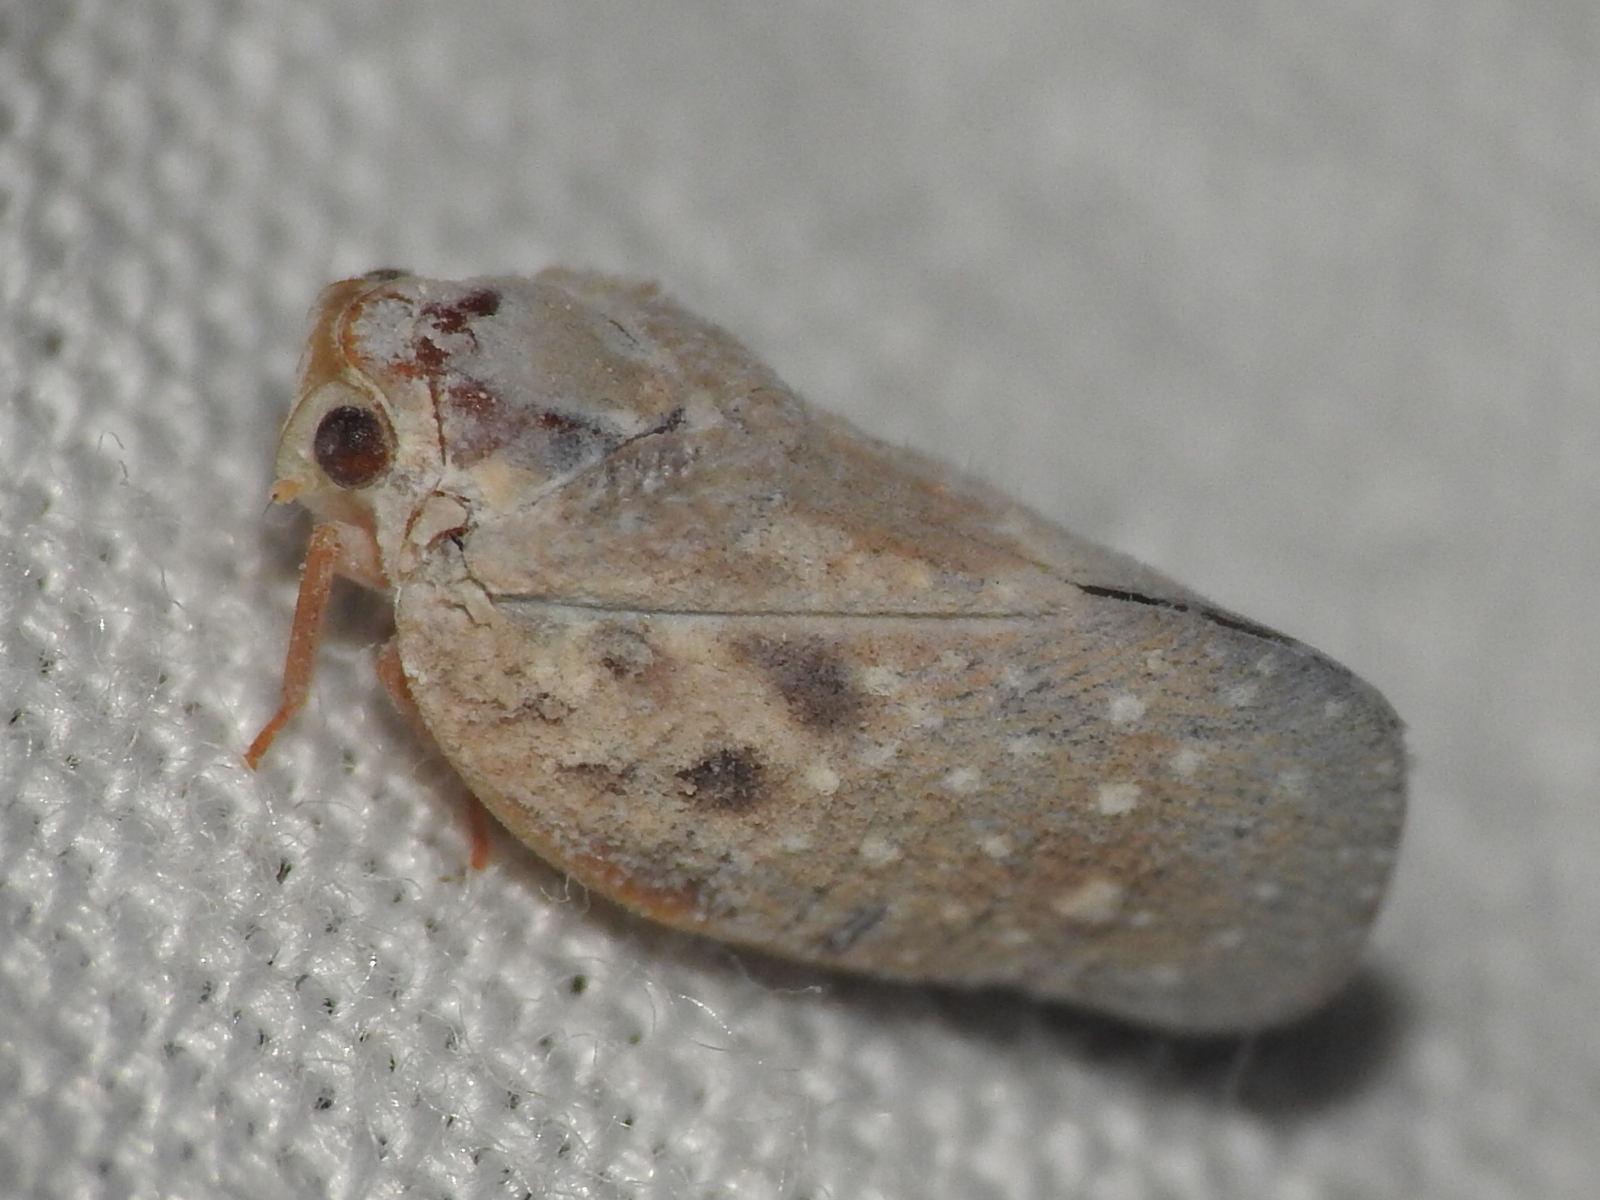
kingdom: Animalia
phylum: Arthropoda
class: Insecta
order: Hemiptera
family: Flatidae
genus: Metcalfa
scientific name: Metcalfa pruinosa
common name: Citrus flatid planthopper
